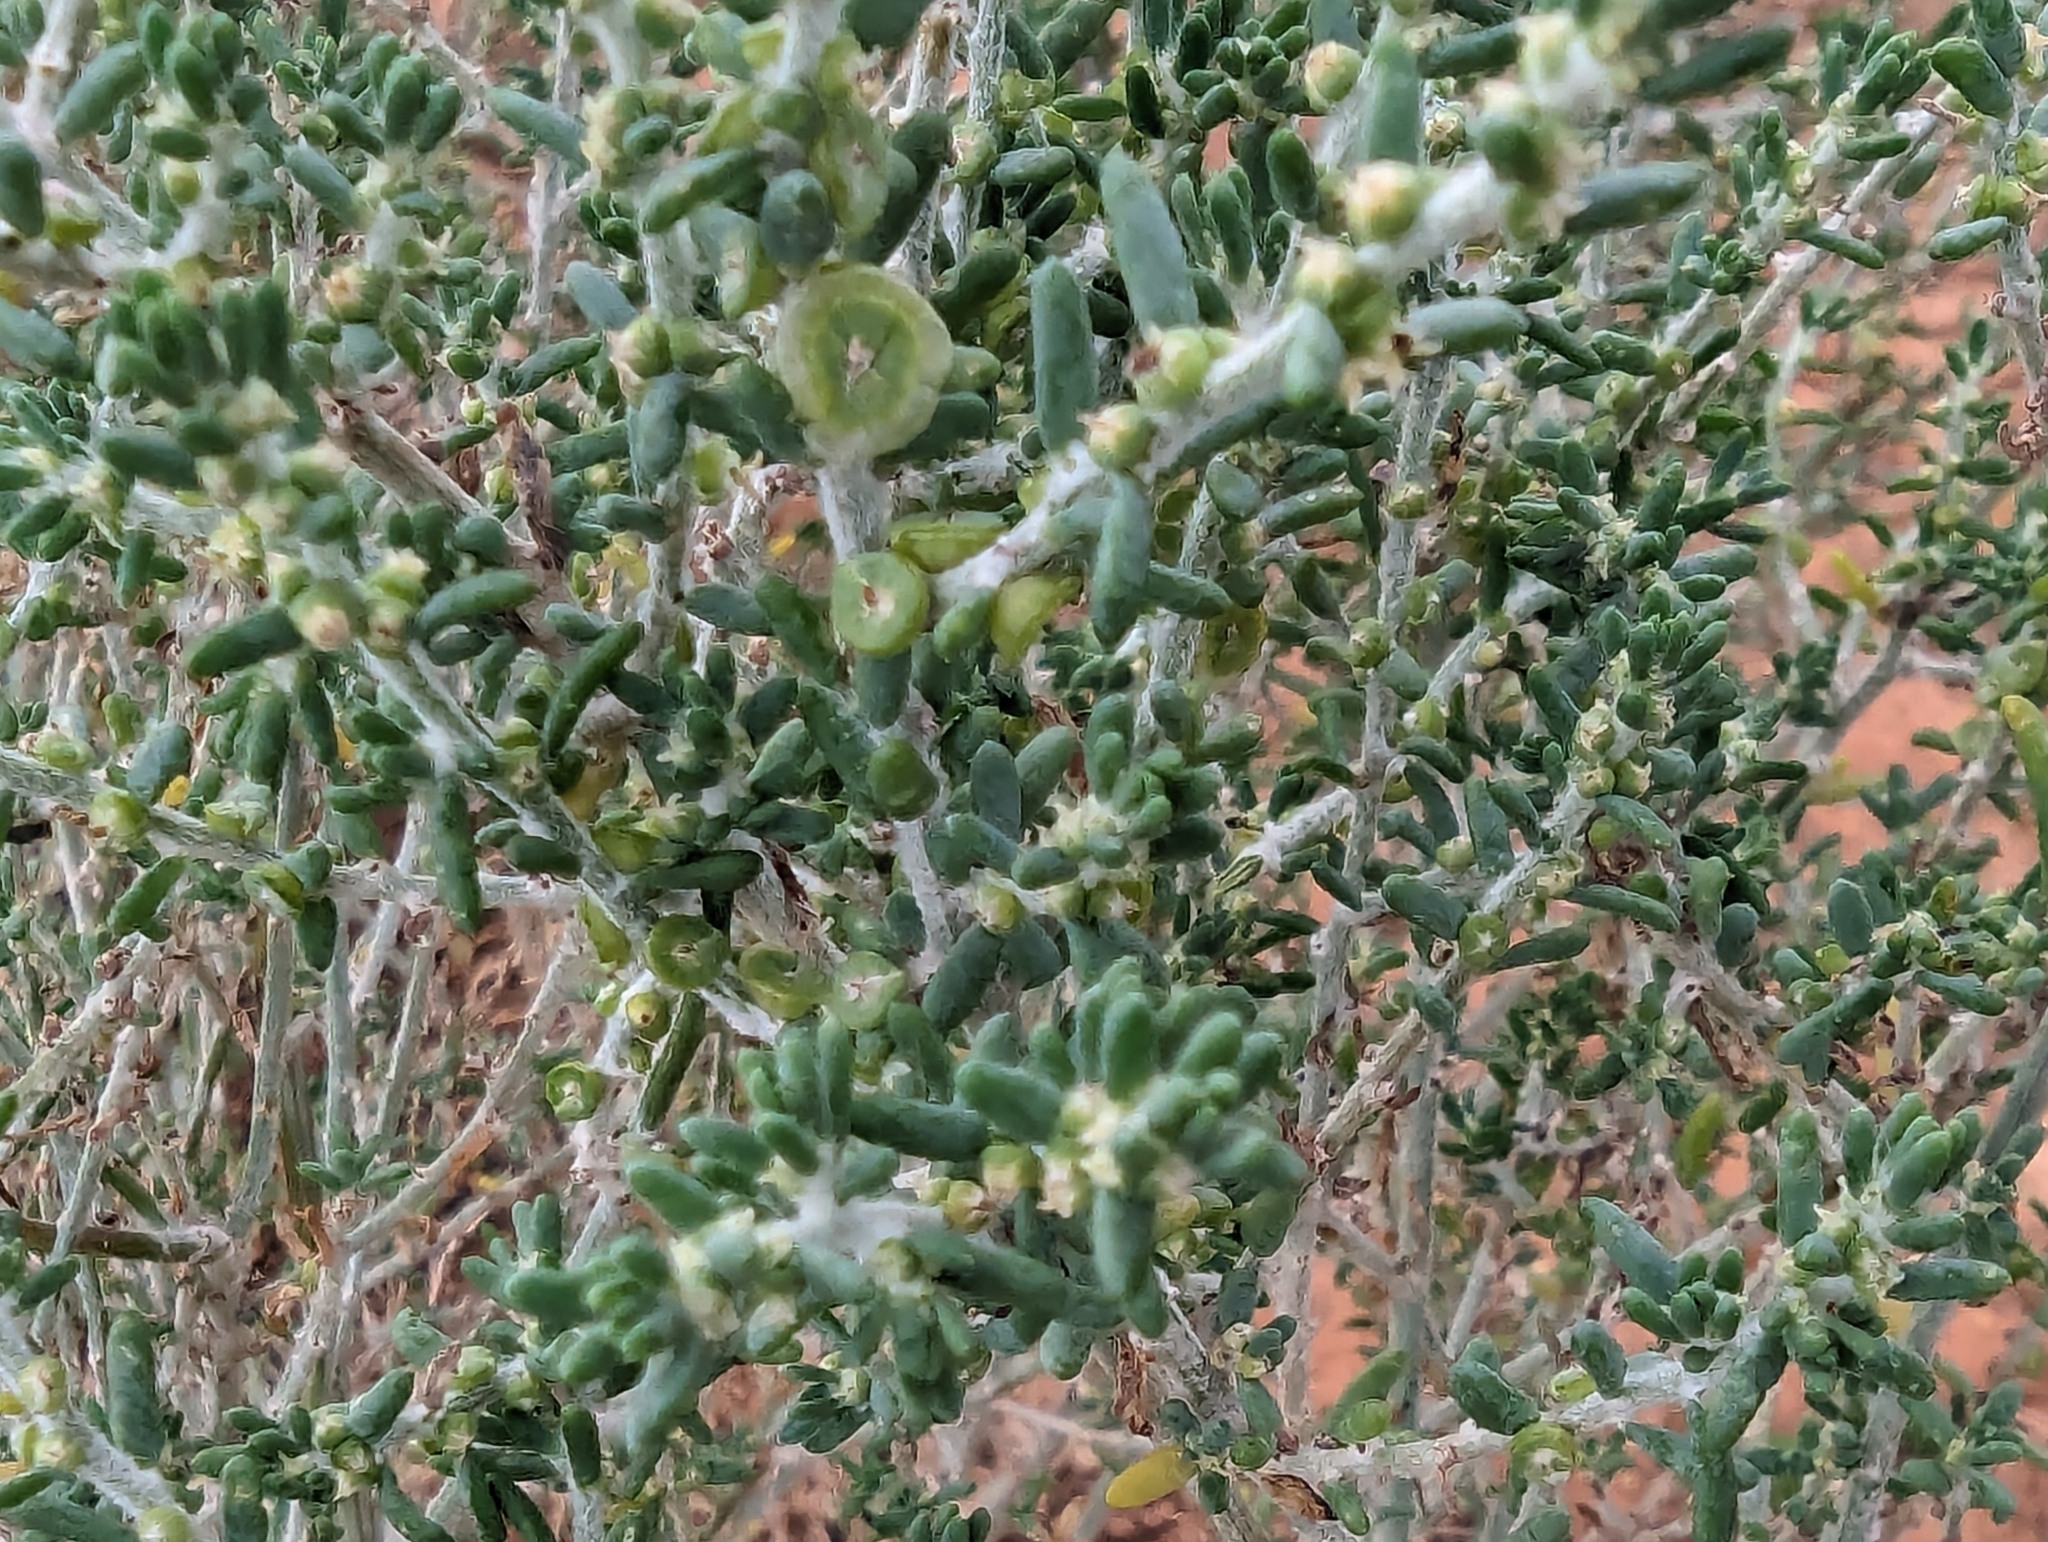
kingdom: Plantae
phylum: Tracheophyta
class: Magnoliopsida
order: Caryophyllales
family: Amaranthaceae
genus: Maireana
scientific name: Maireana microcarpa
